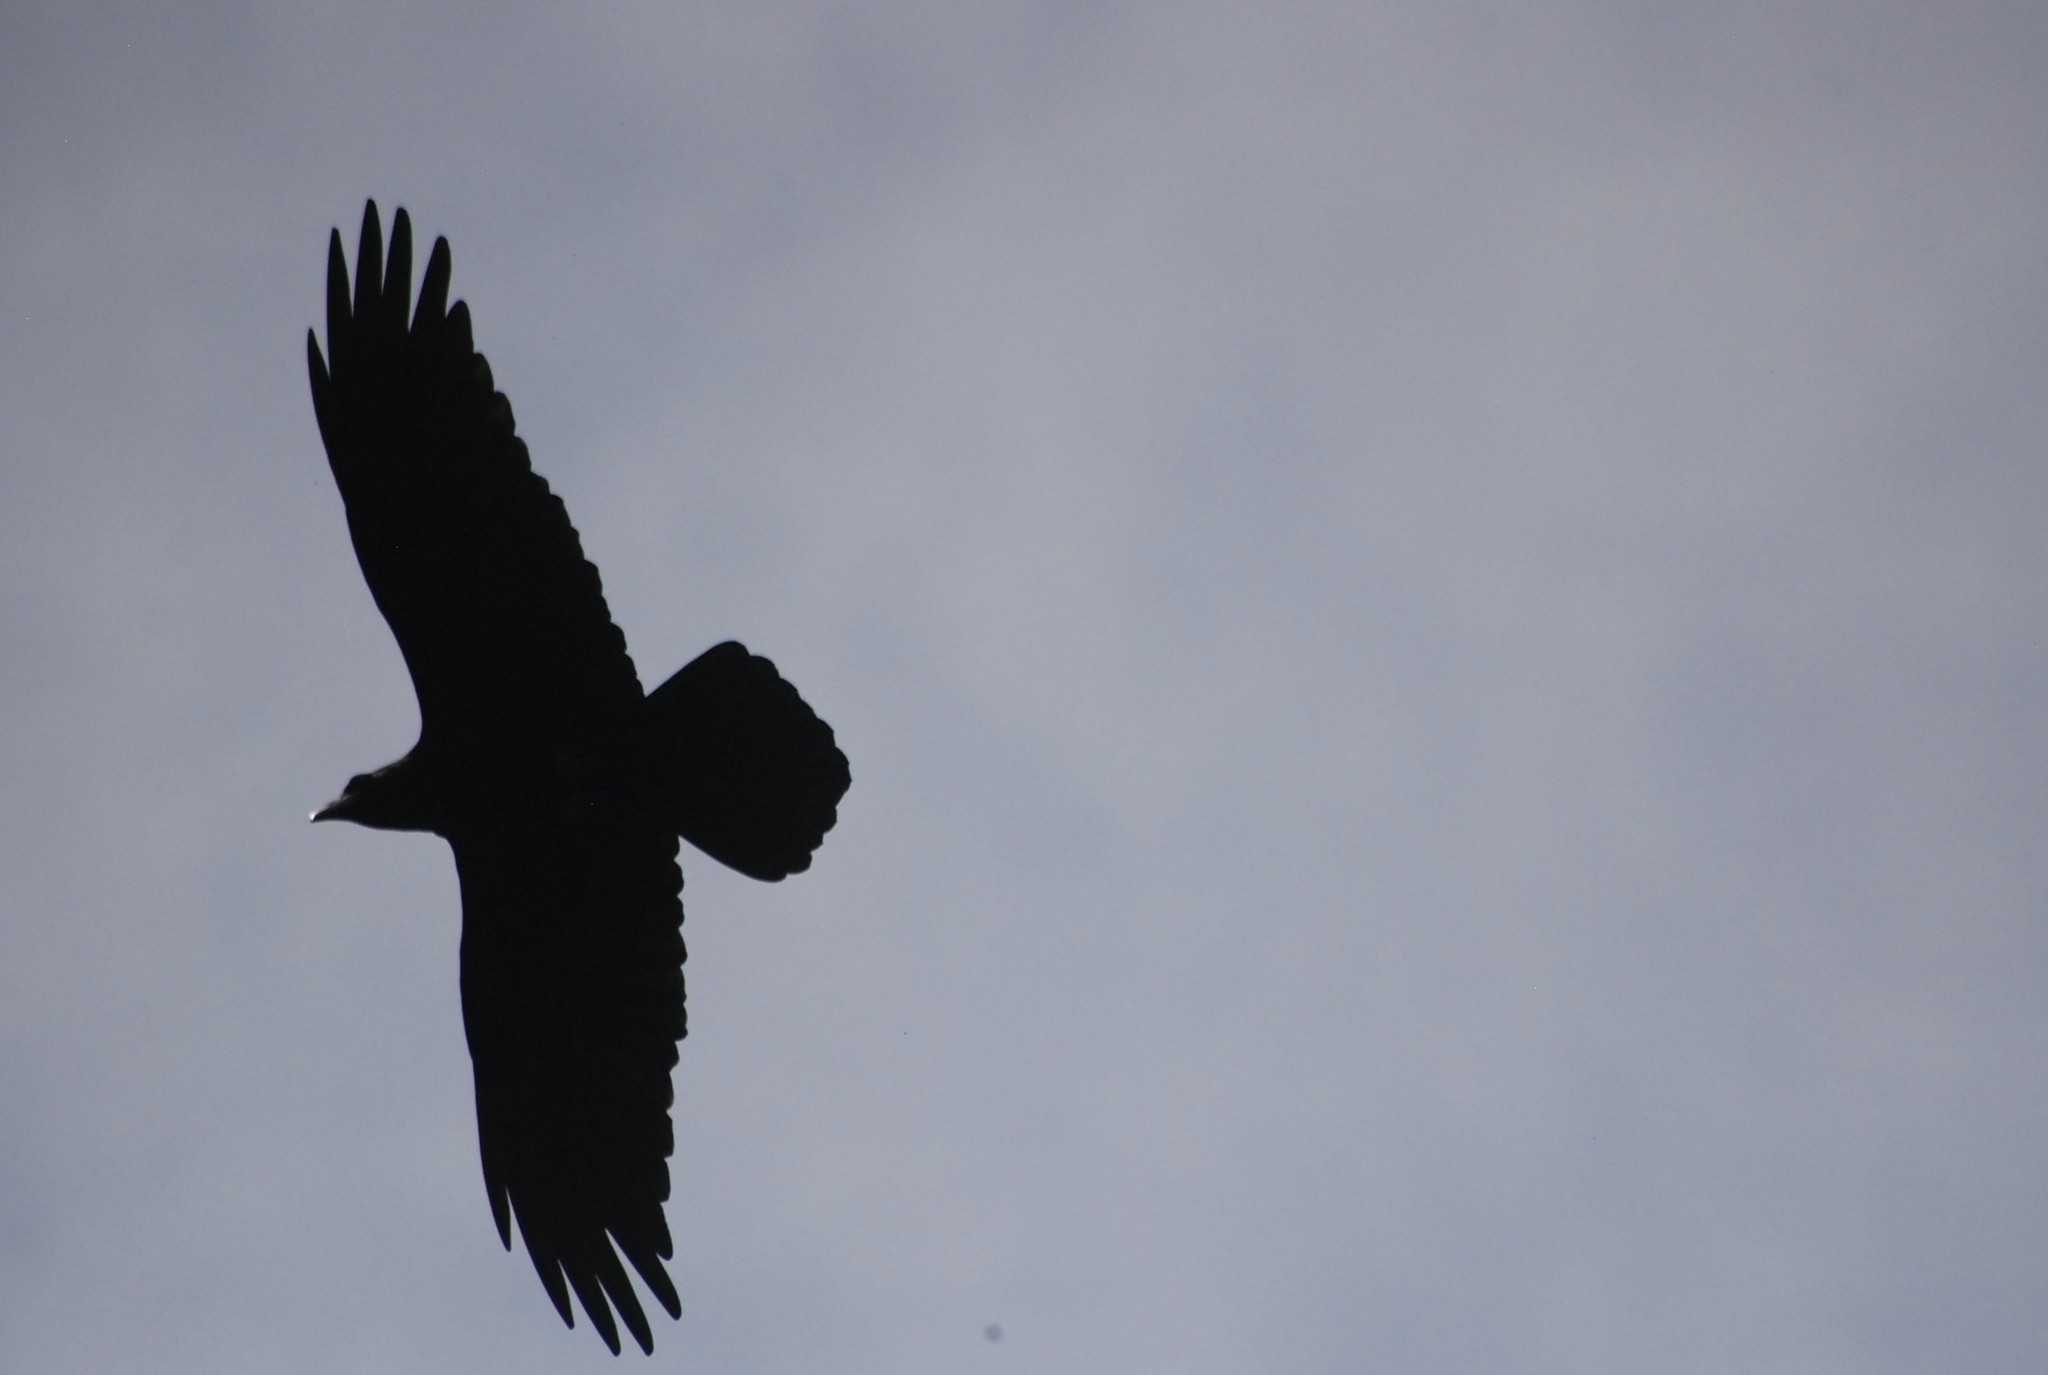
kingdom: Animalia
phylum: Chordata
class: Aves
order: Passeriformes
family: Corvidae
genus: Corvus
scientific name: Corvus corax
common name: Common raven
